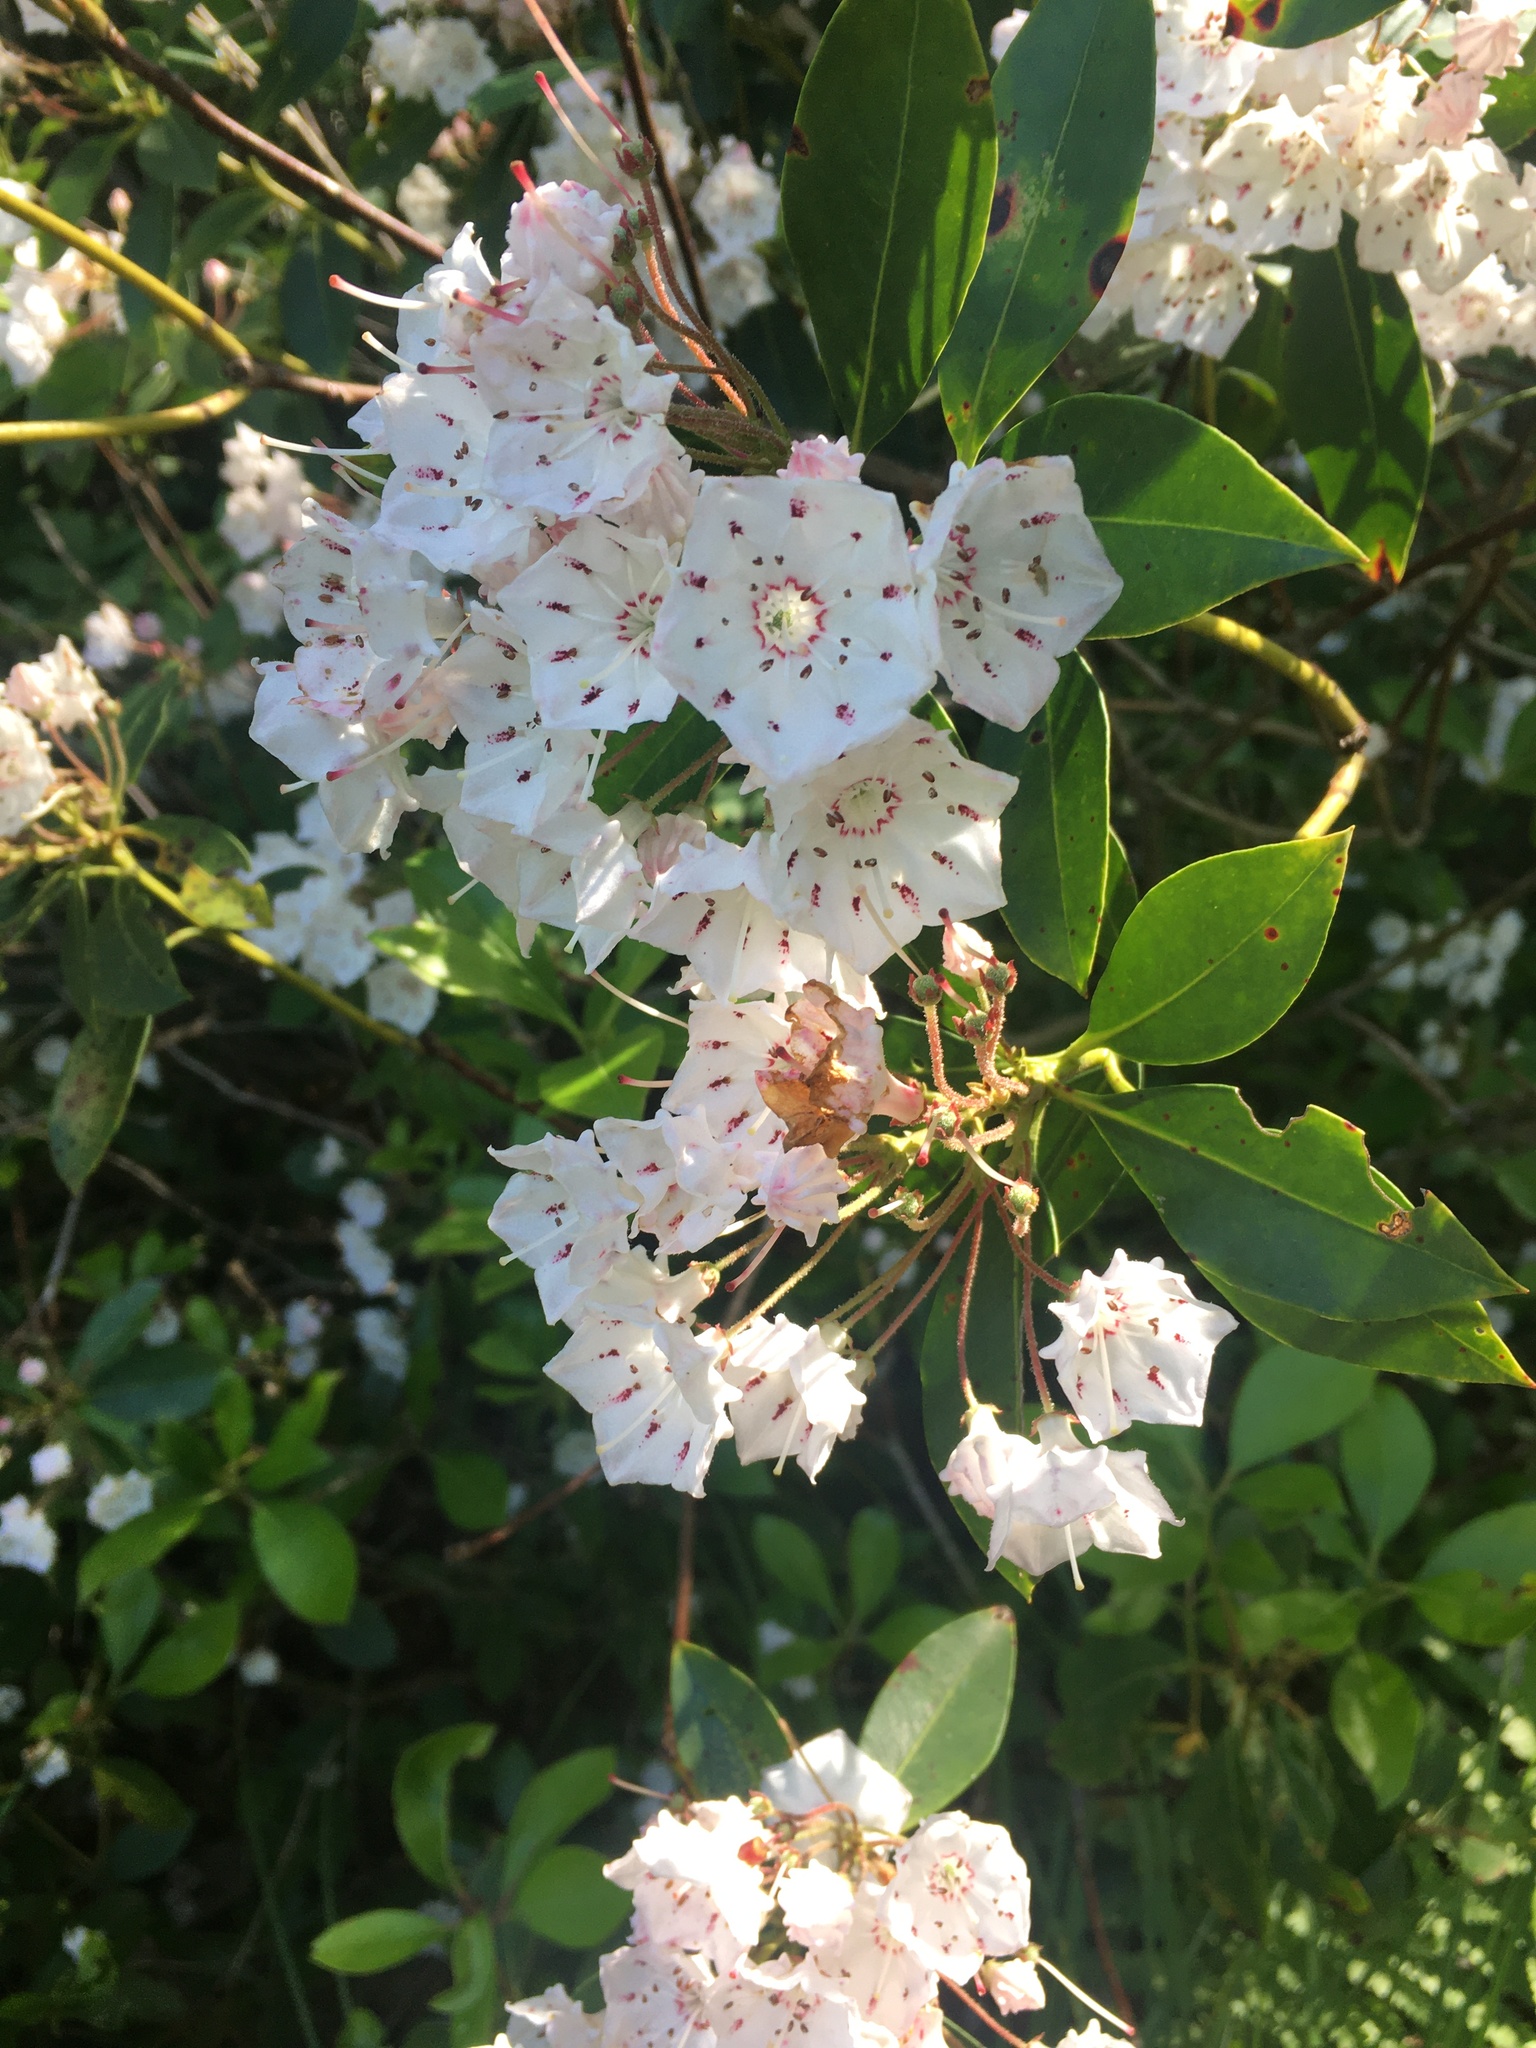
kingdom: Plantae
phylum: Tracheophyta
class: Magnoliopsida
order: Ericales
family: Ericaceae
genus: Kalmia
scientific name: Kalmia latifolia
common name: Mountain-laurel
